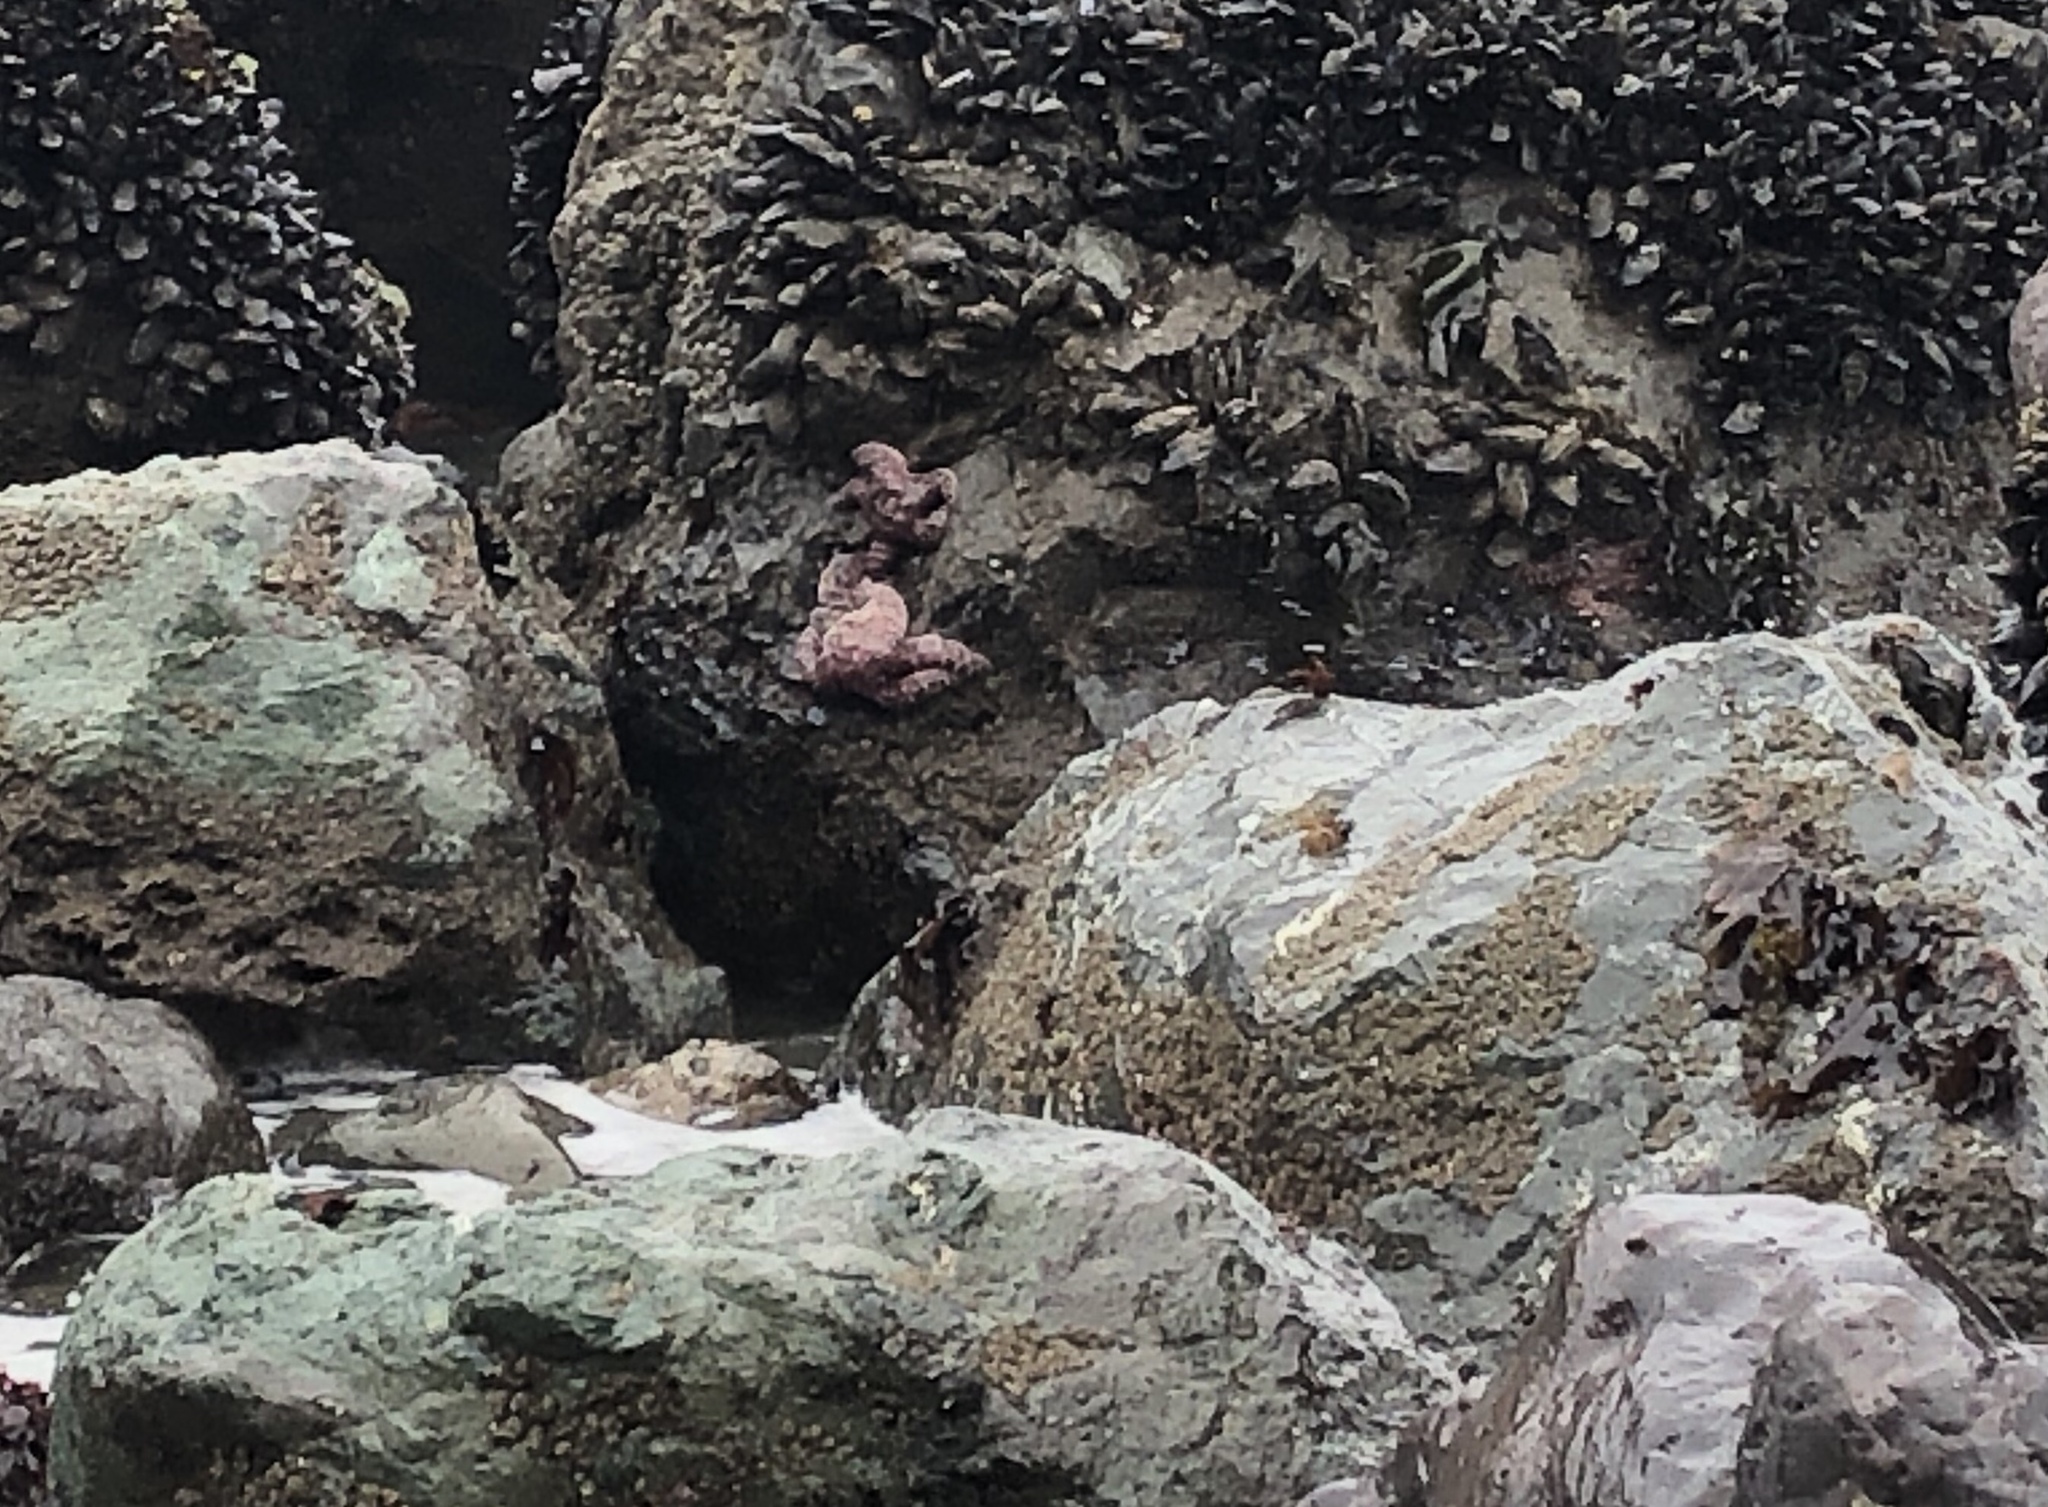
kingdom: Animalia
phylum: Echinodermata
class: Asteroidea
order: Forcipulatida
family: Asteriidae
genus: Pisaster
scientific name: Pisaster ochraceus
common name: Ochre stars
